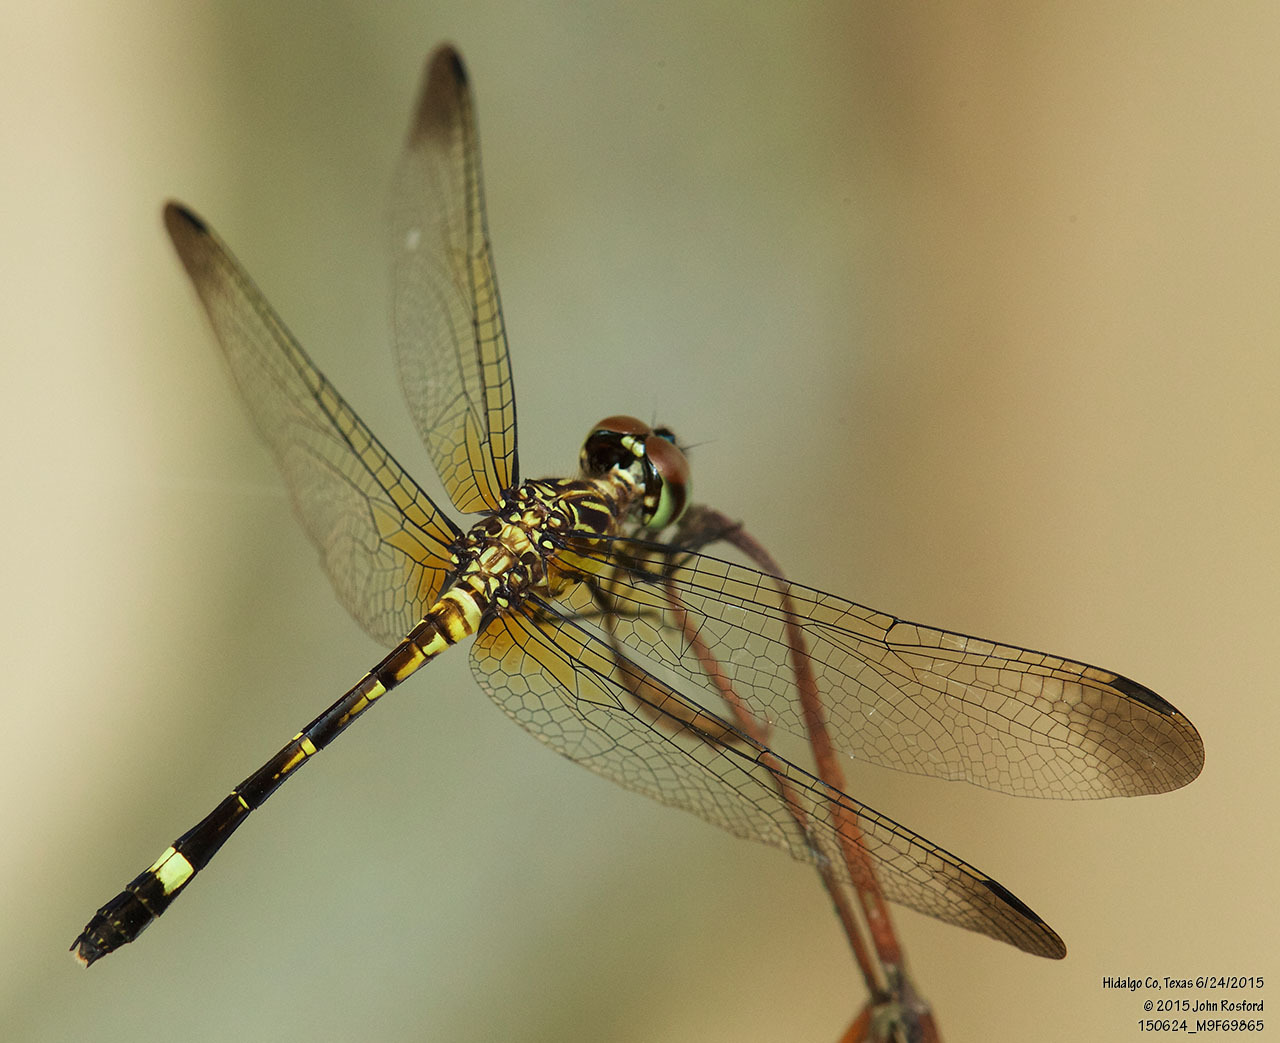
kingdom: Animalia
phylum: Arthropoda
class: Insecta
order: Odonata
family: Libellulidae
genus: Micrathyria
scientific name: Micrathyria didyma
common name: Three-striped dasher
